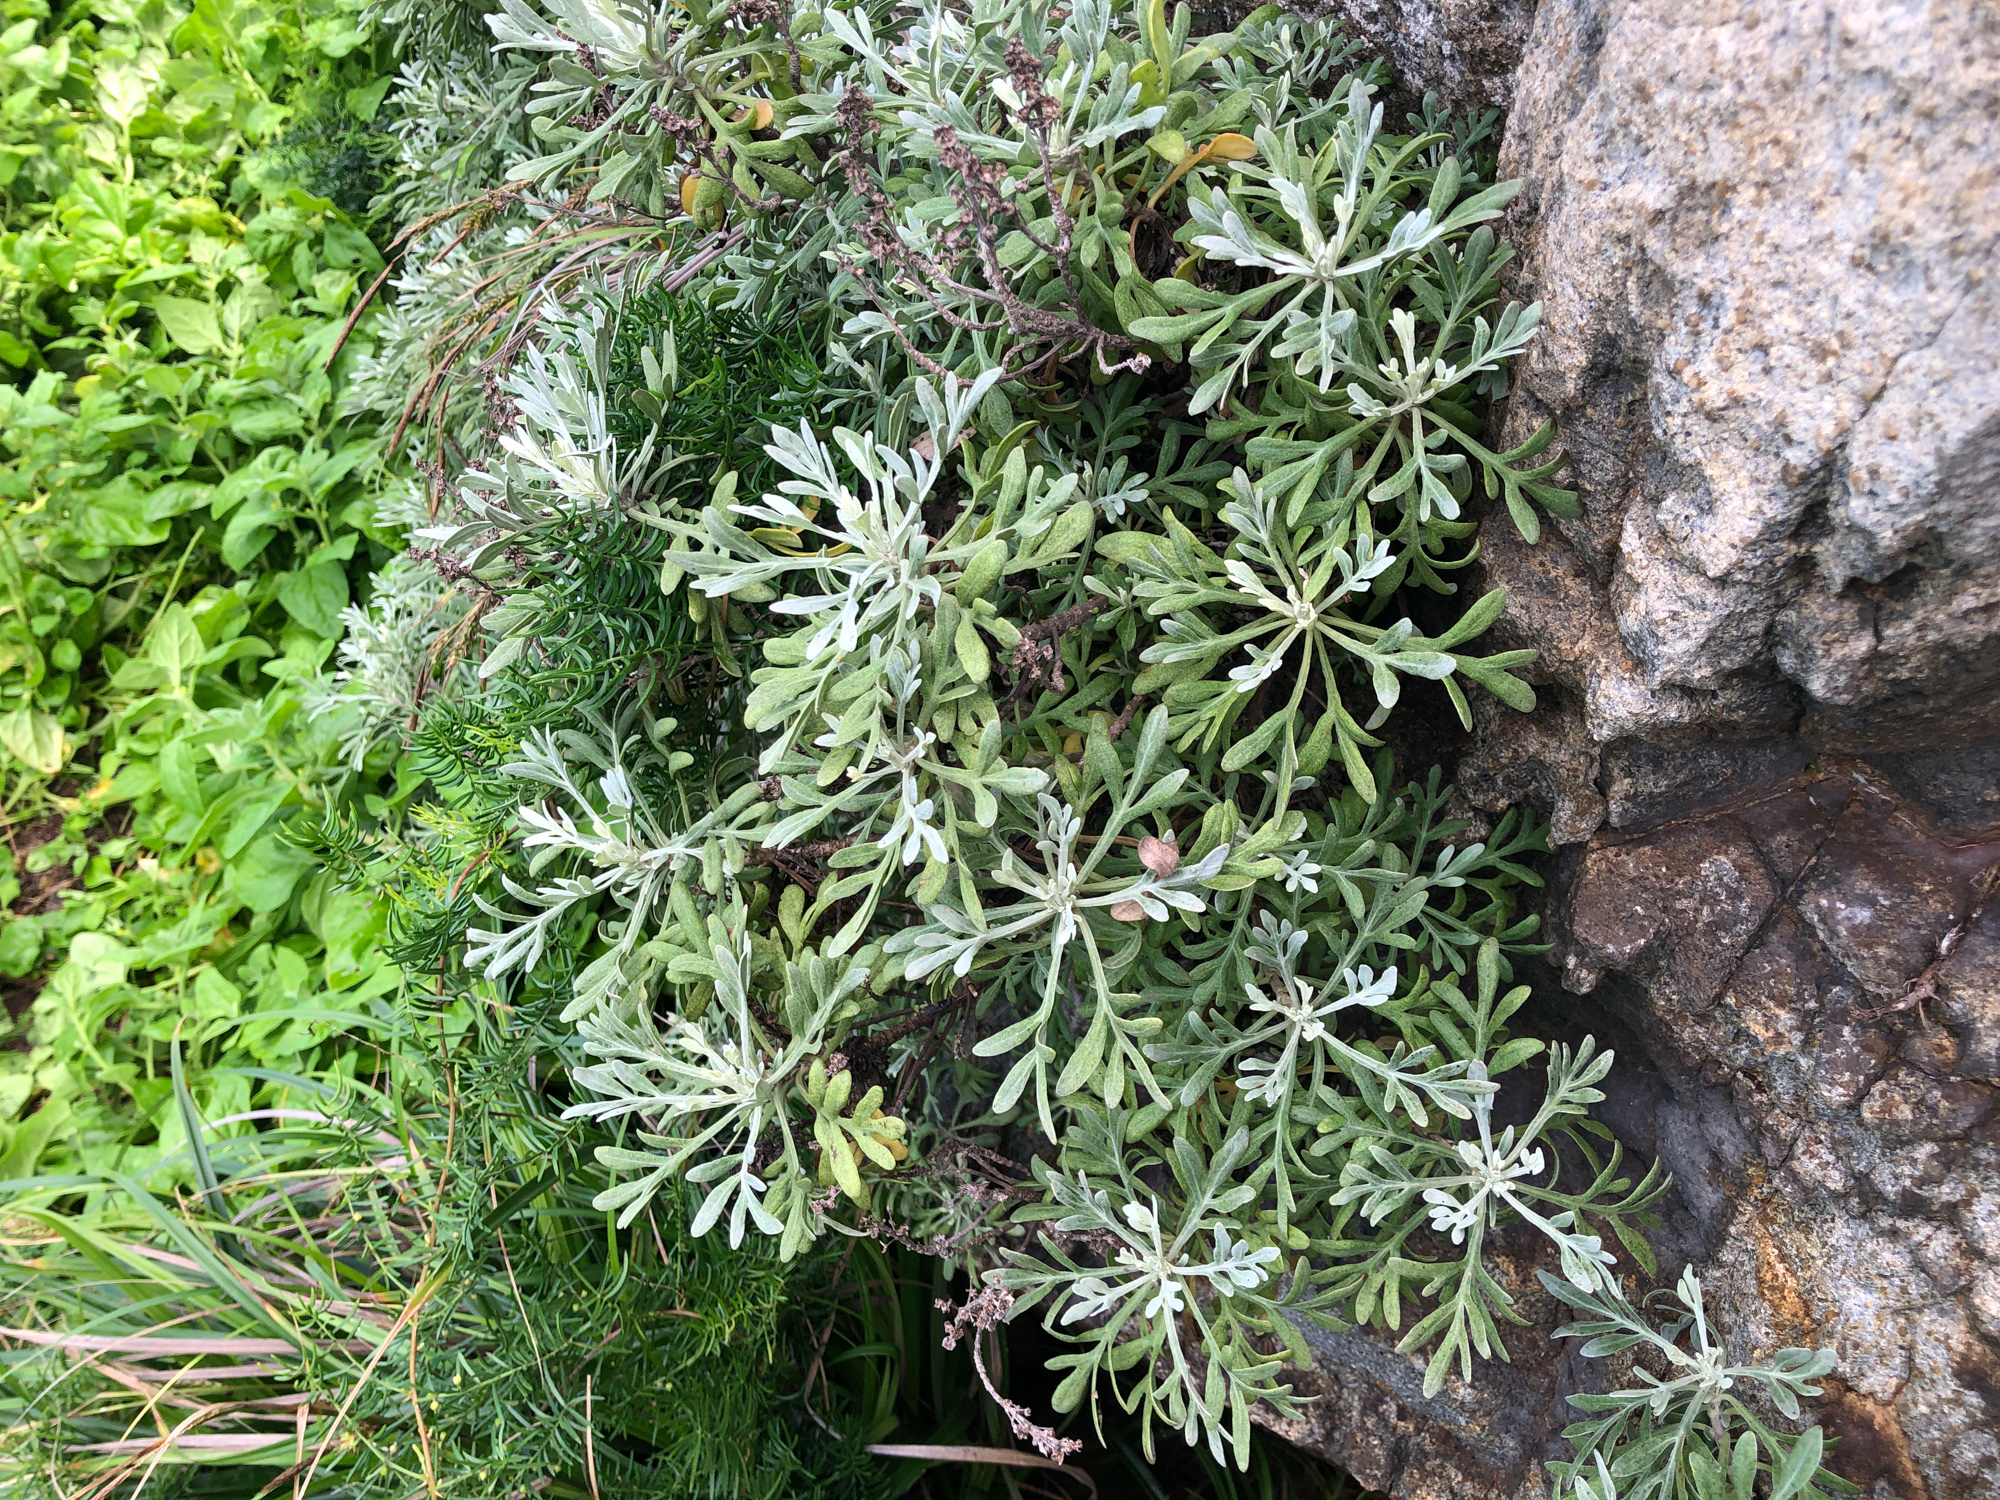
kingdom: Plantae
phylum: Tracheophyta
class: Magnoliopsida
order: Asterales
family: Asteraceae
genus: Crossostephium
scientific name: Crossostephium chinense
